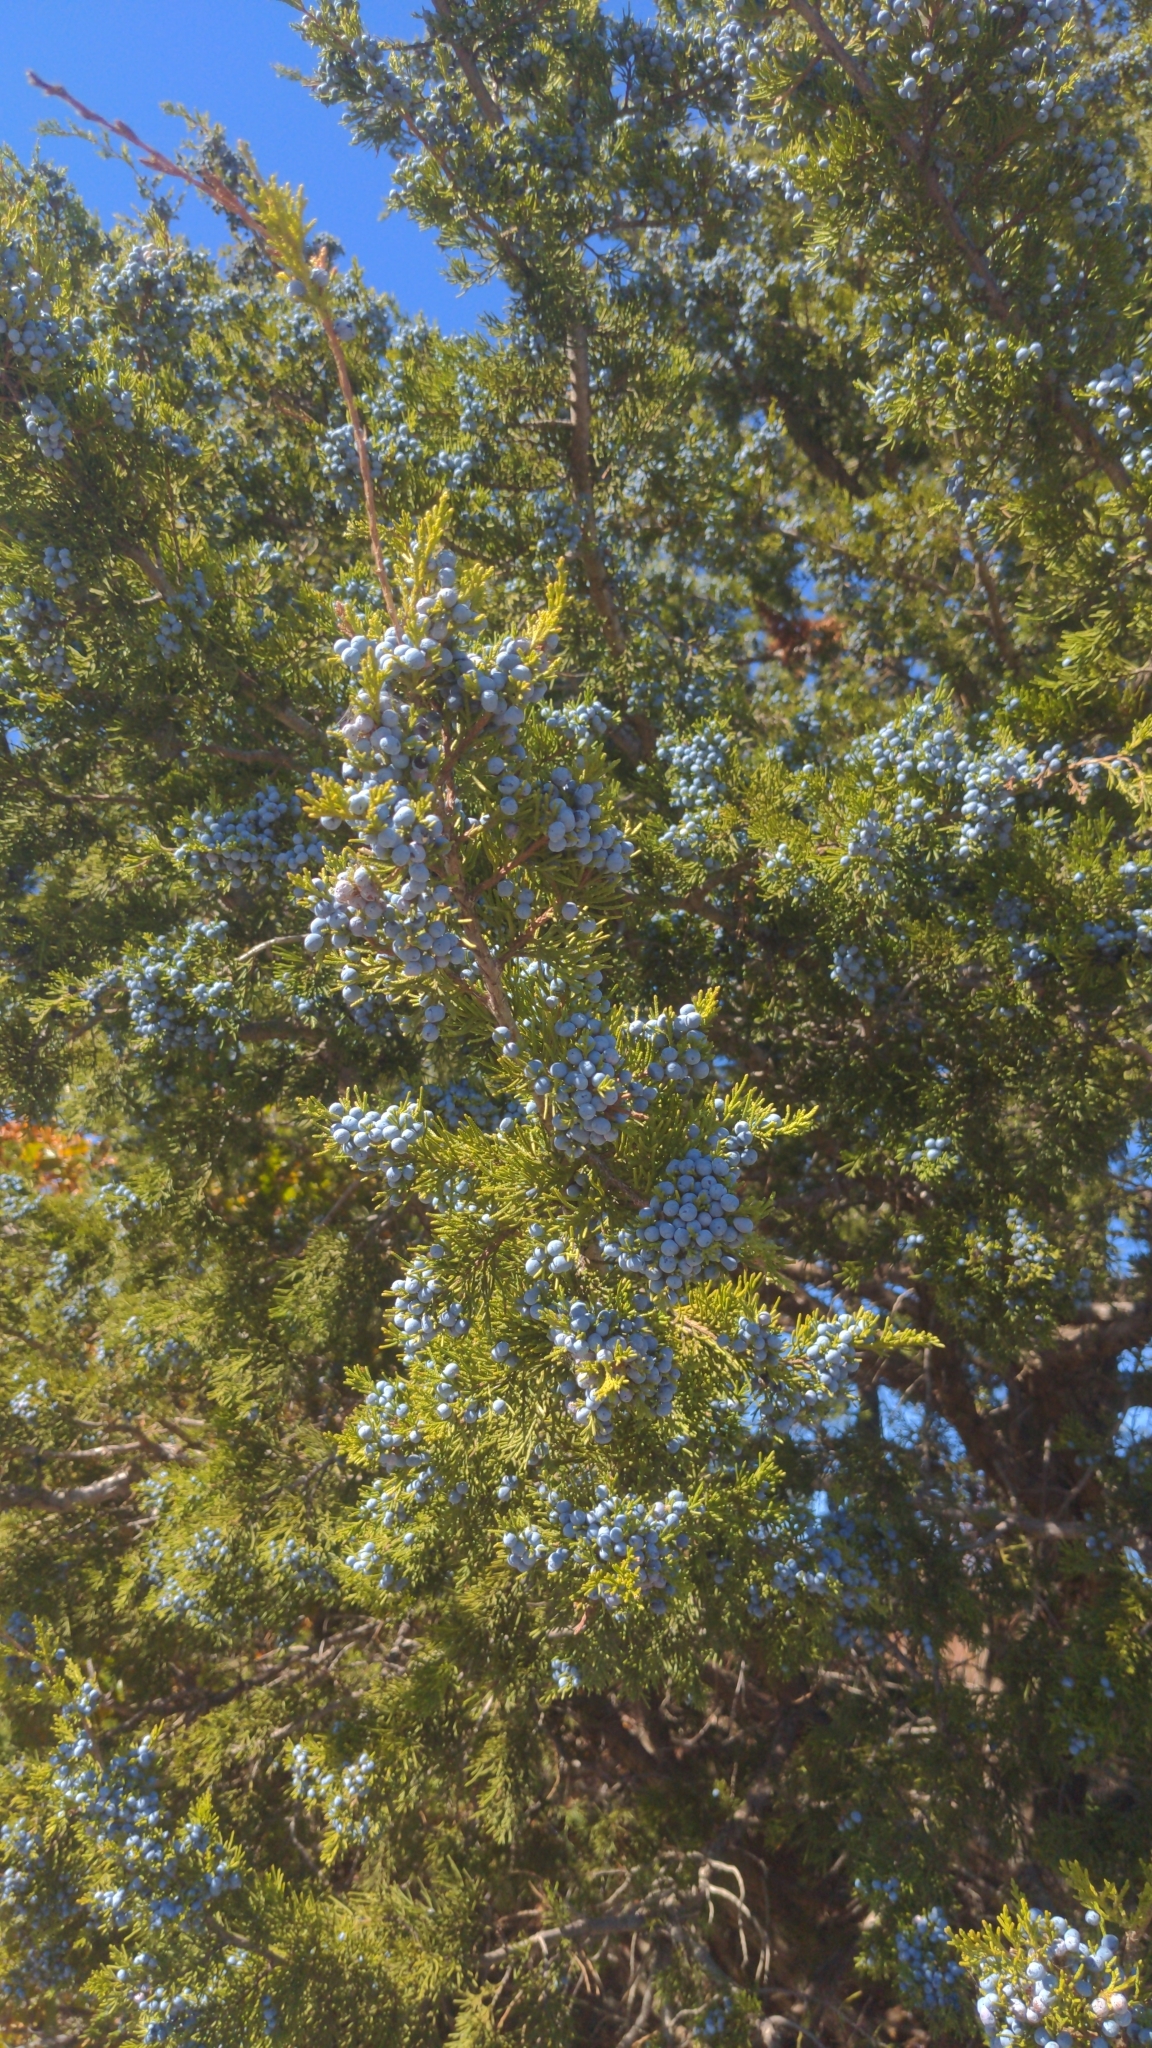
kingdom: Plantae
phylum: Tracheophyta
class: Pinopsida
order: Pinales
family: Cupressaceae
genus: Juniperus
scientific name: Juniperus virginiana
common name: Red juniper
